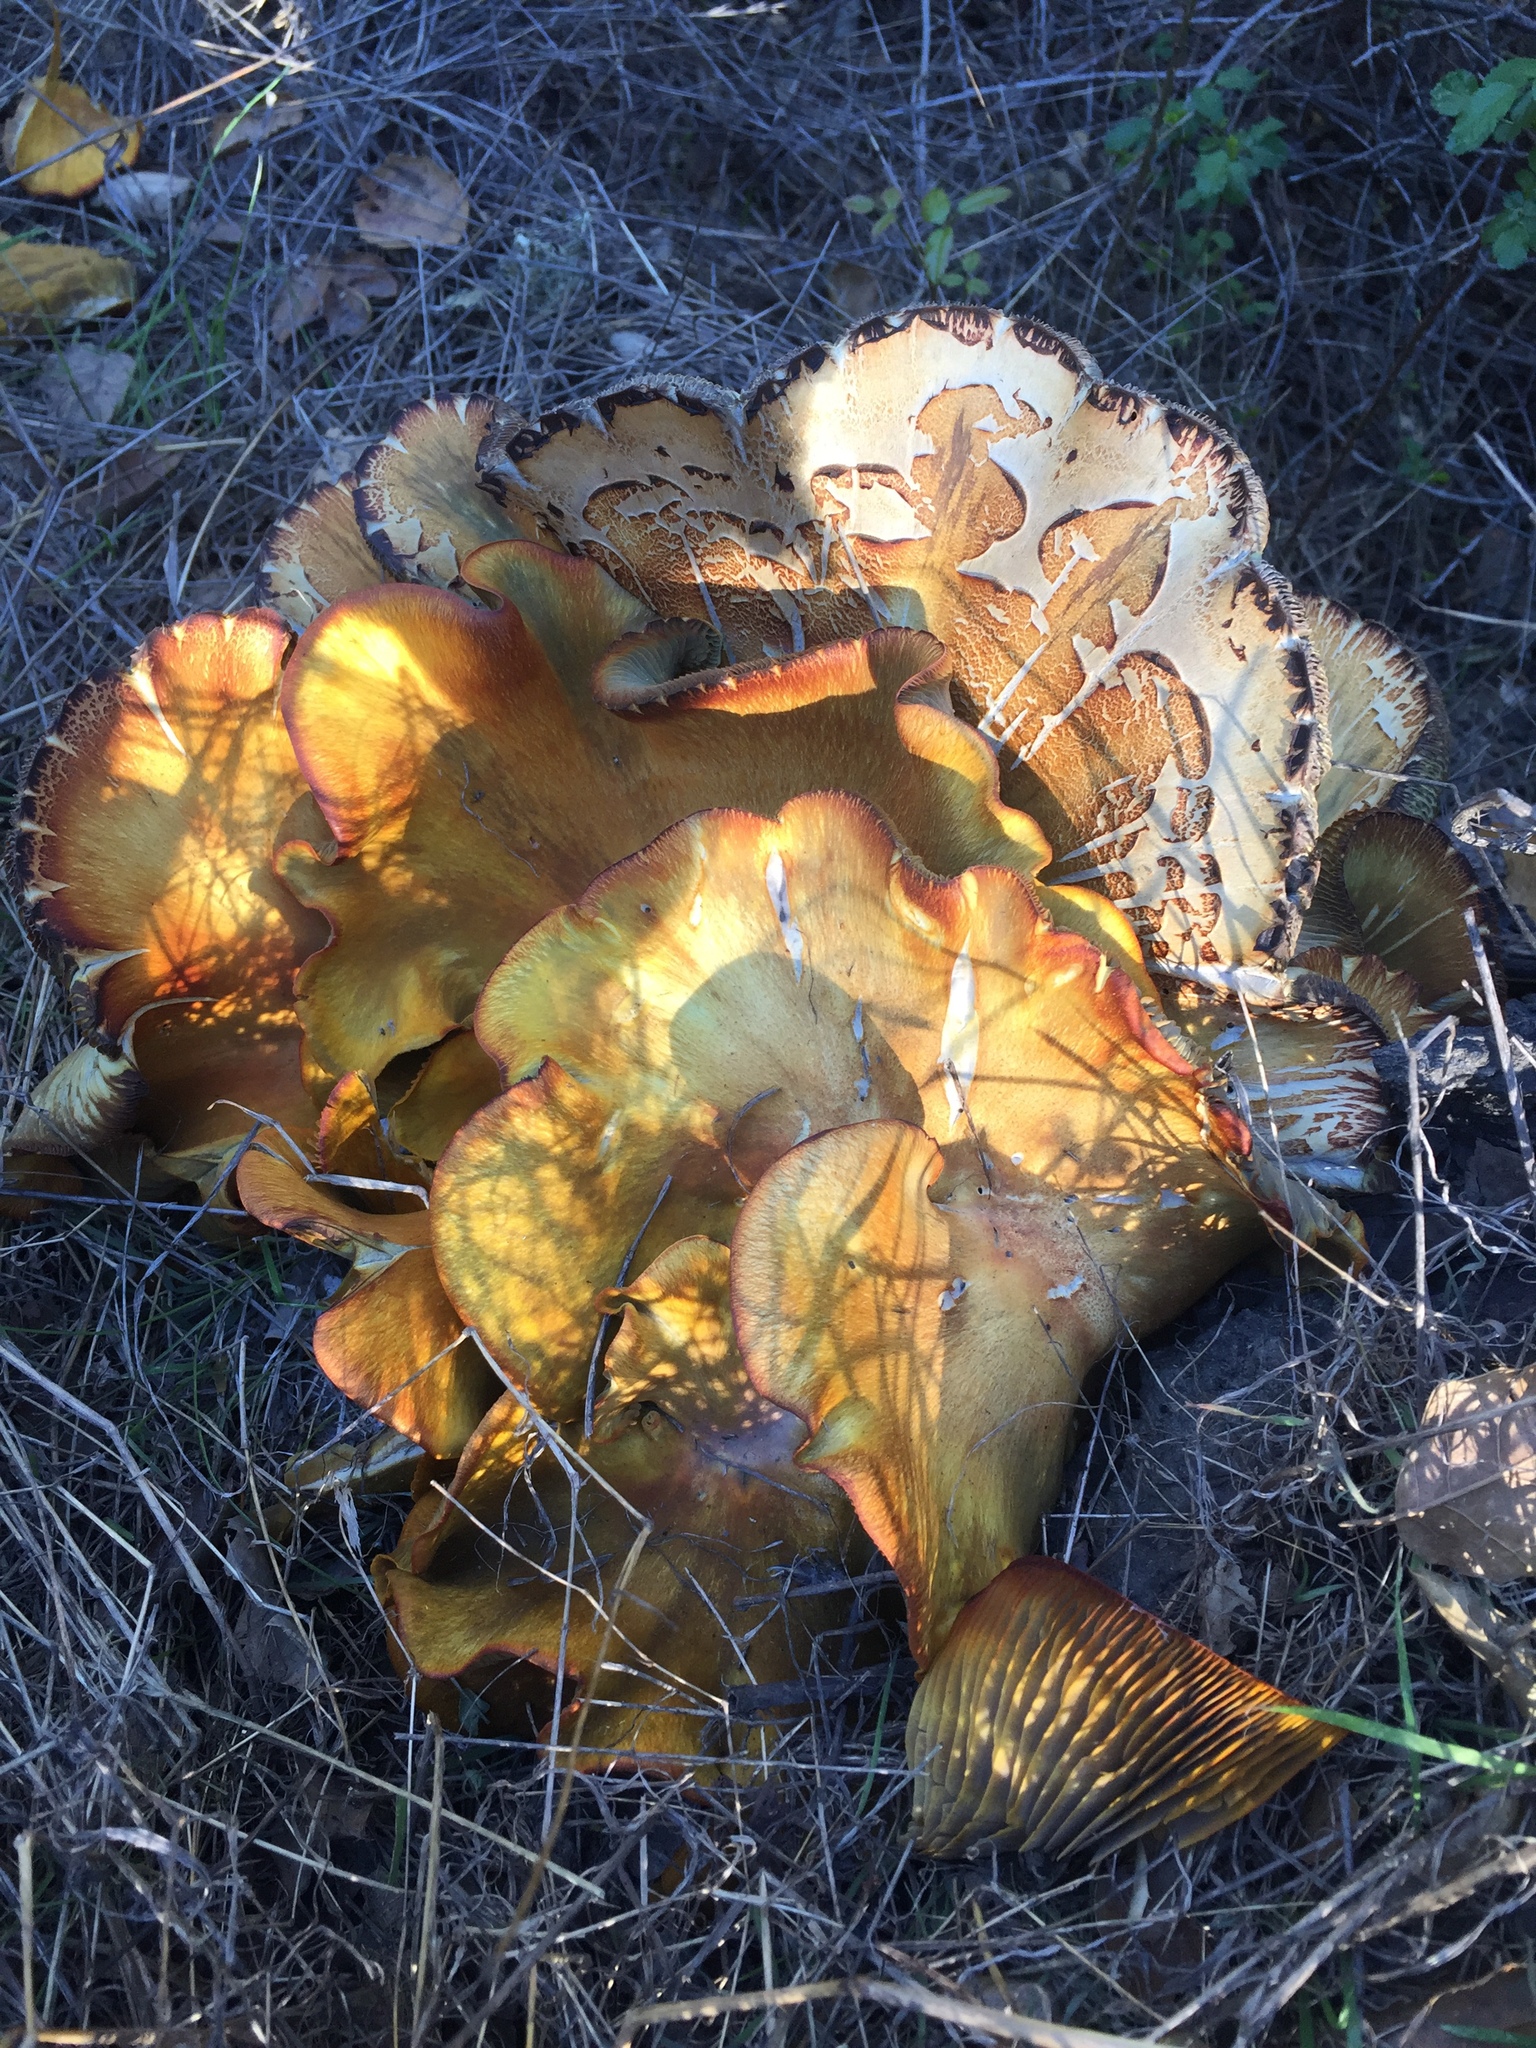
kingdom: Fungi
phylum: Basidiomycota
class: Agaricomycetes
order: Agaricales
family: Omphalotaceae
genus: Omphalotus
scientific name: Omphalotus olivascens
